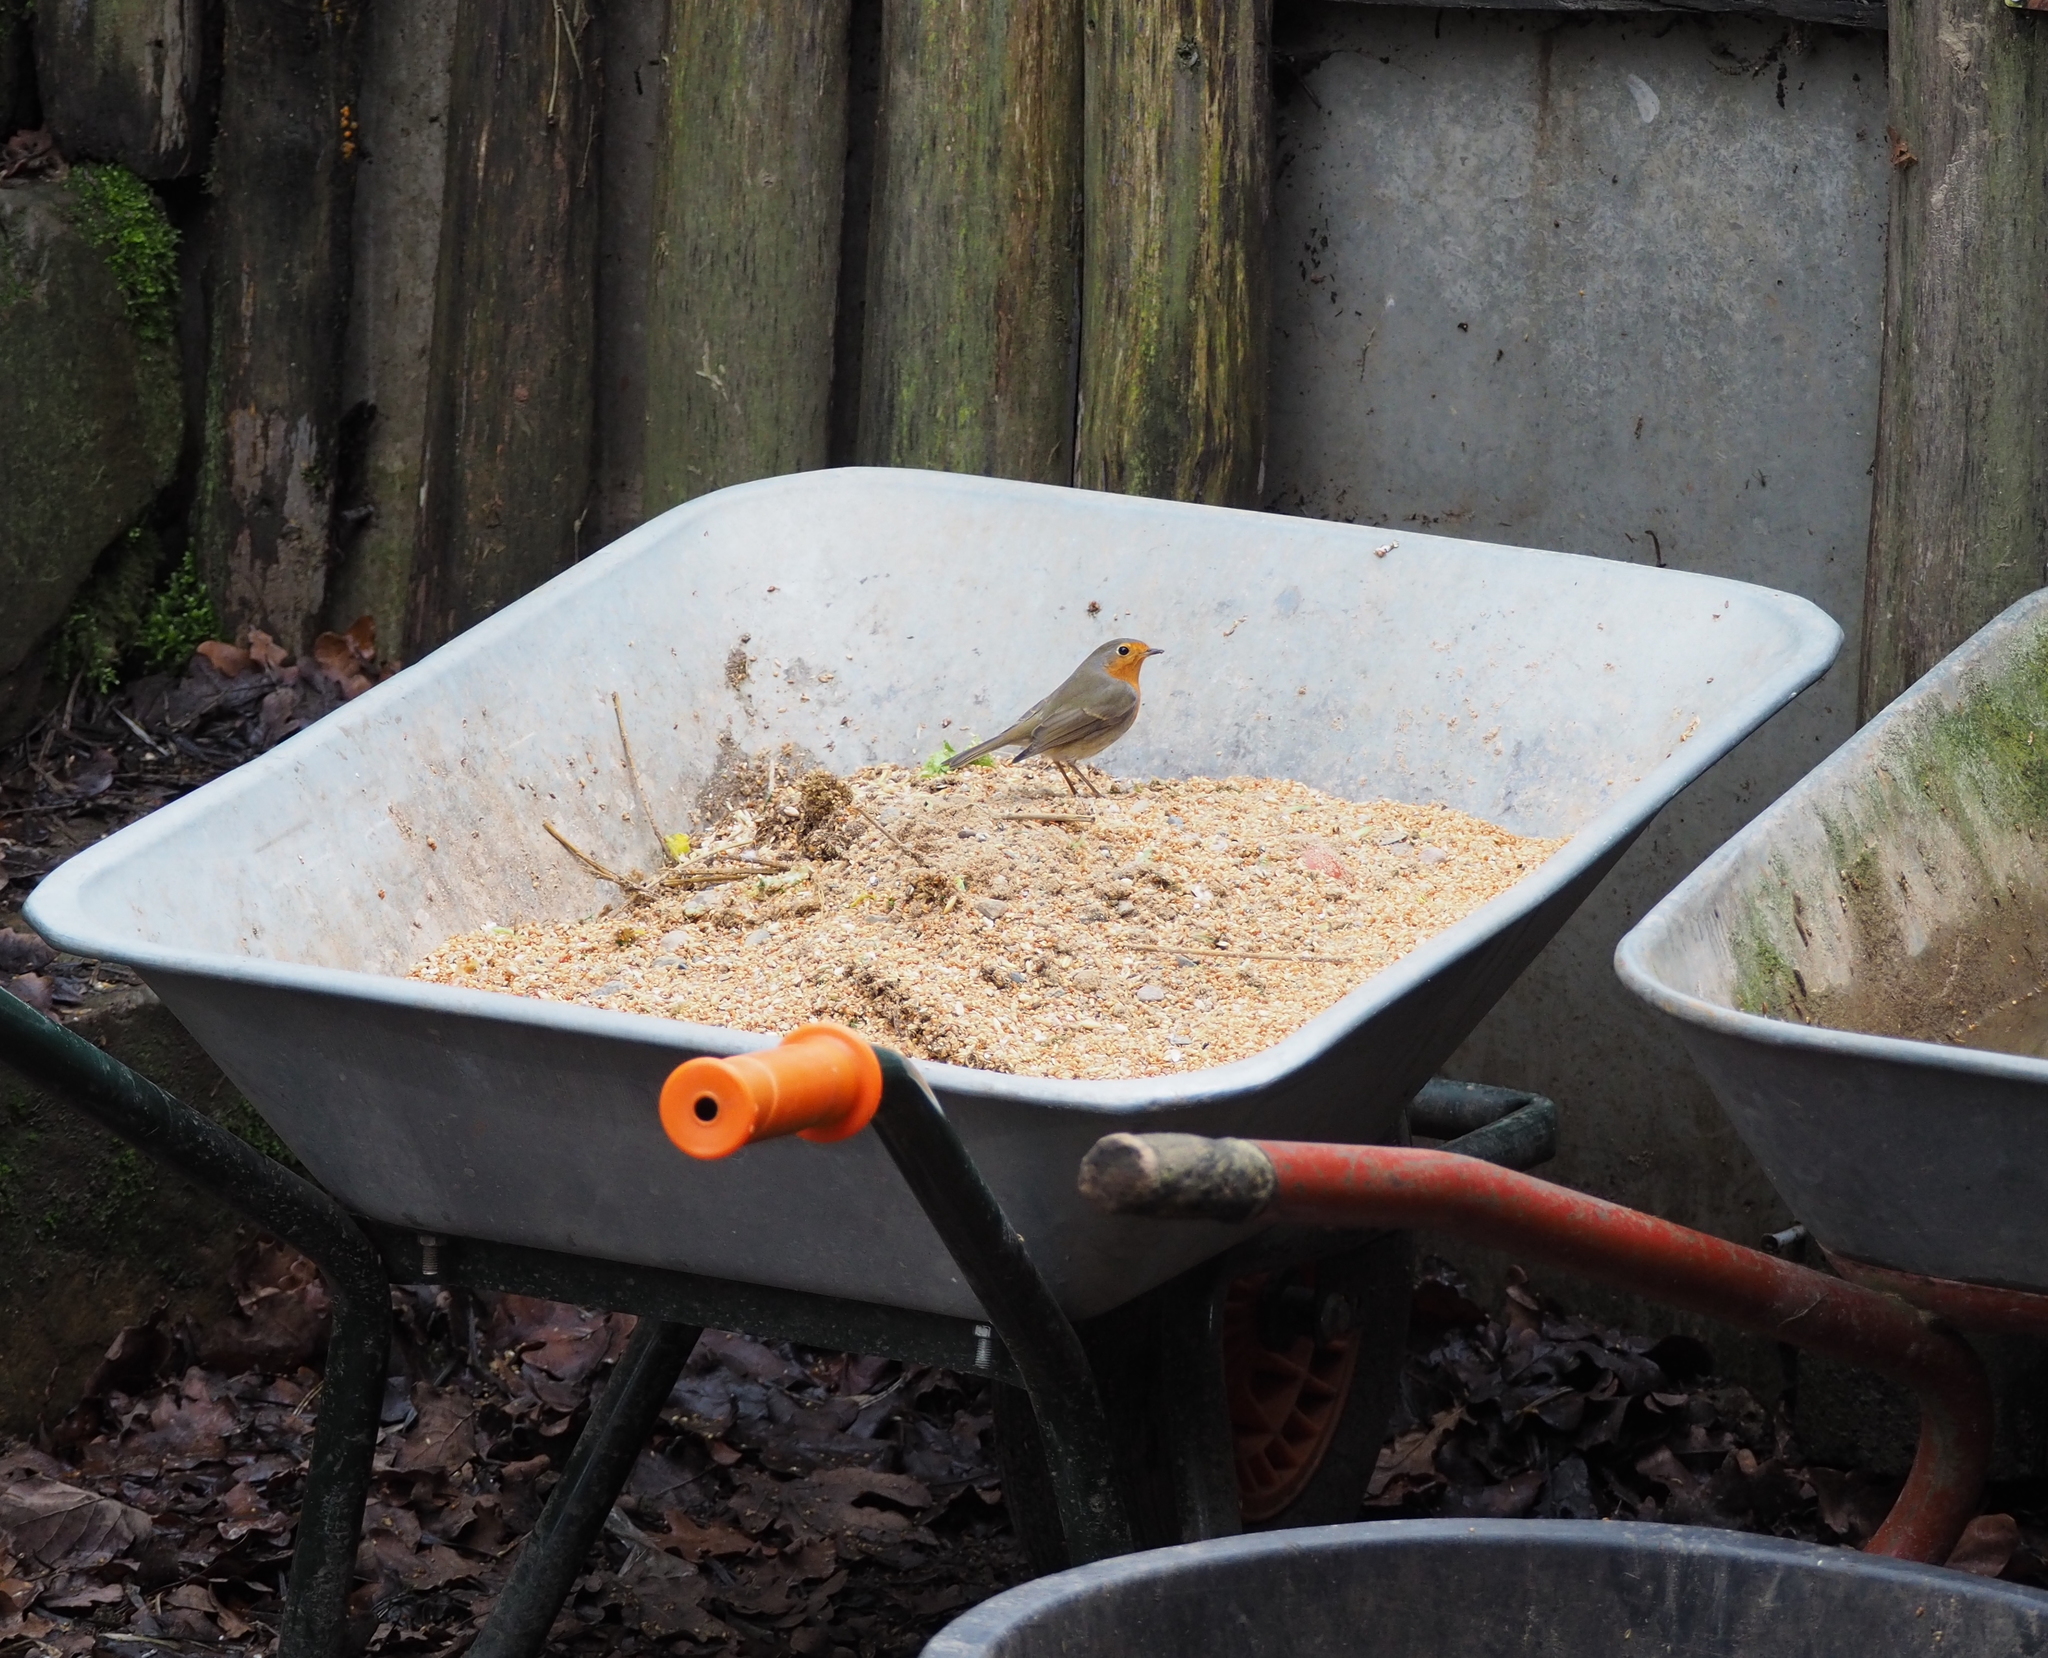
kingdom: Animalia
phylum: Chordata
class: Aves
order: Passeriformes
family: Muscicapidae
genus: Erithacus
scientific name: Erithacus rubecula
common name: European robin
